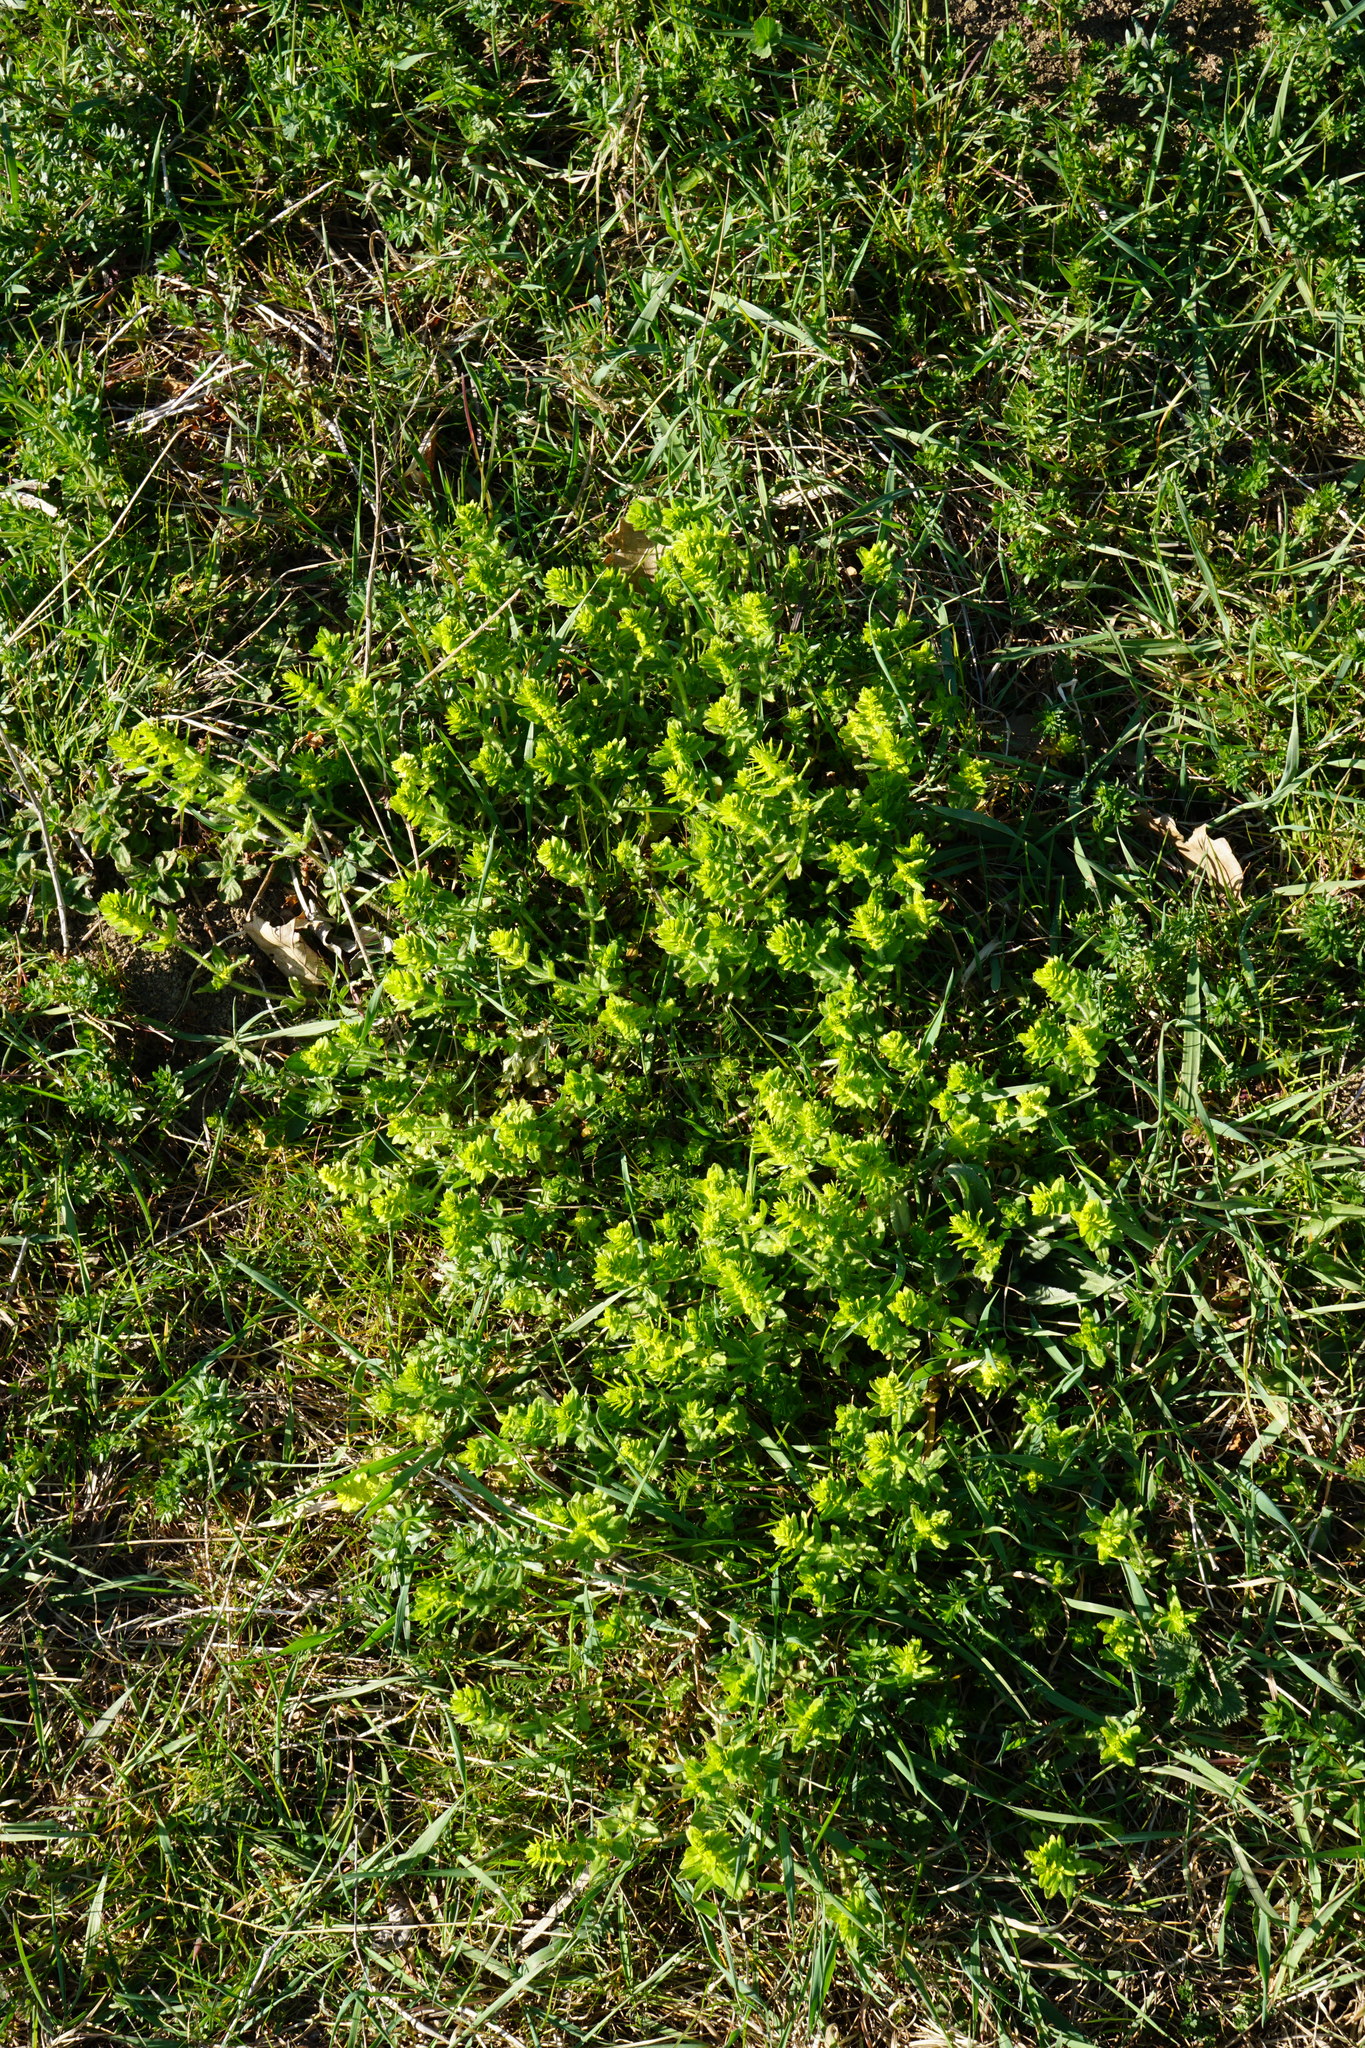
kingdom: Plantae
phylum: Tracheophyta
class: Magnoliopsida
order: Gentianales
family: Rubiaceae
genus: Cruciata
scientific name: Cruciata laevipes
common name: Crosswort
